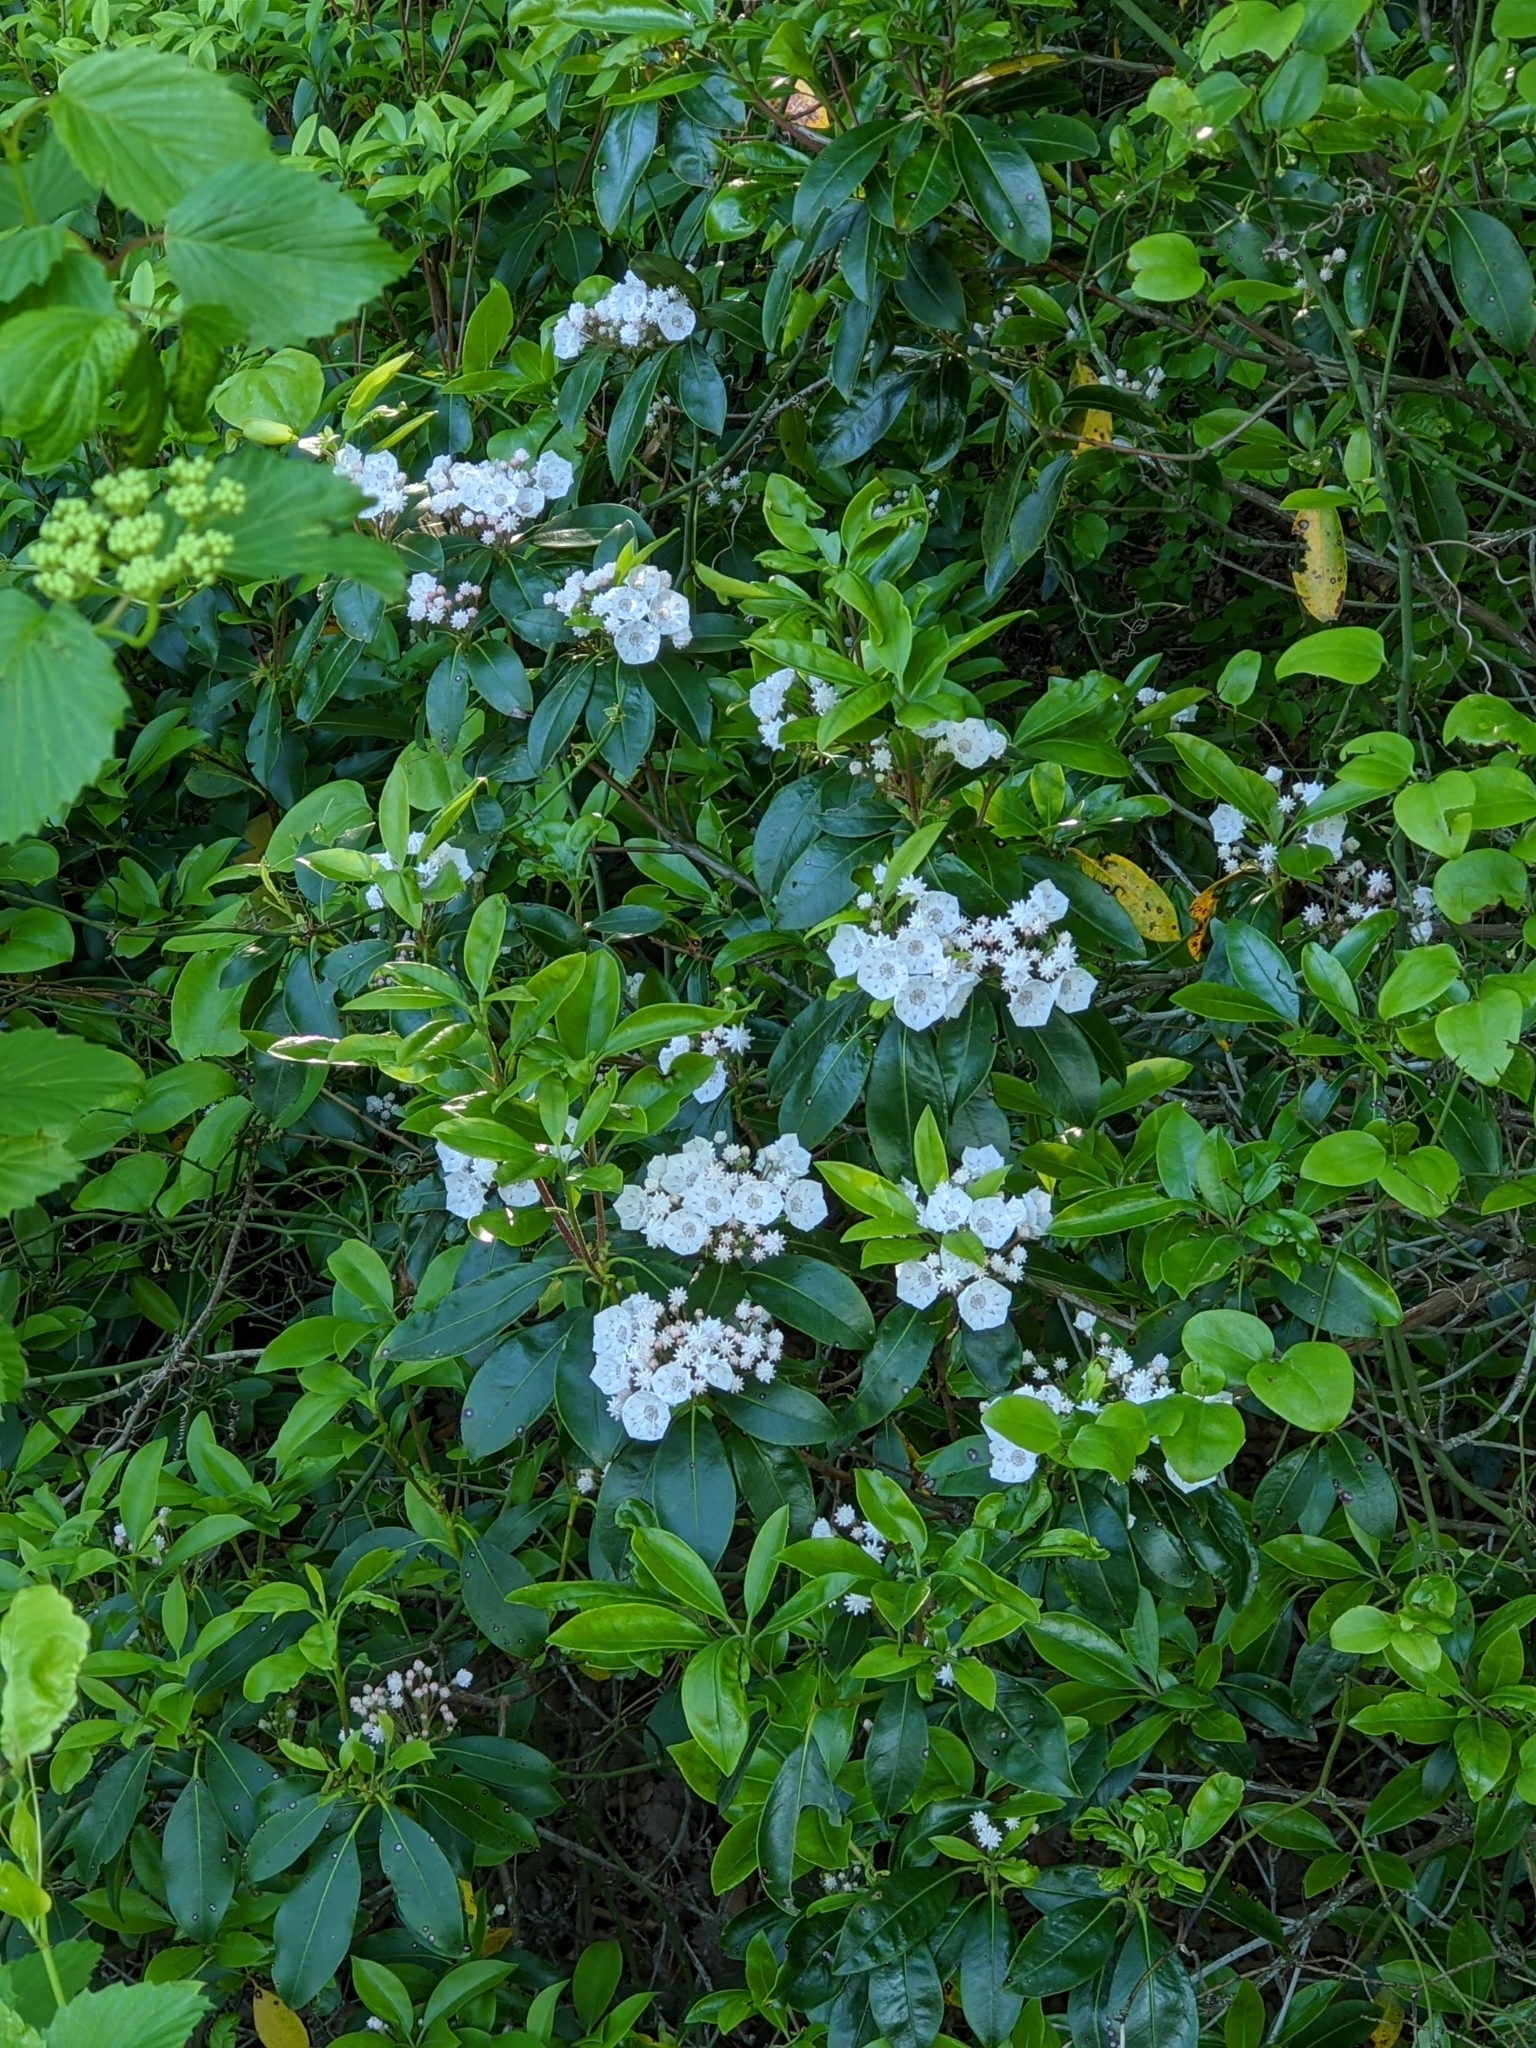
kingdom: Plantae
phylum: Tracheophyta
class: Magnoliopsida
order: Ericales
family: Ericaceae
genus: Kalmia
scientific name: Kalmia latifolia
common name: Mountain-laurel
